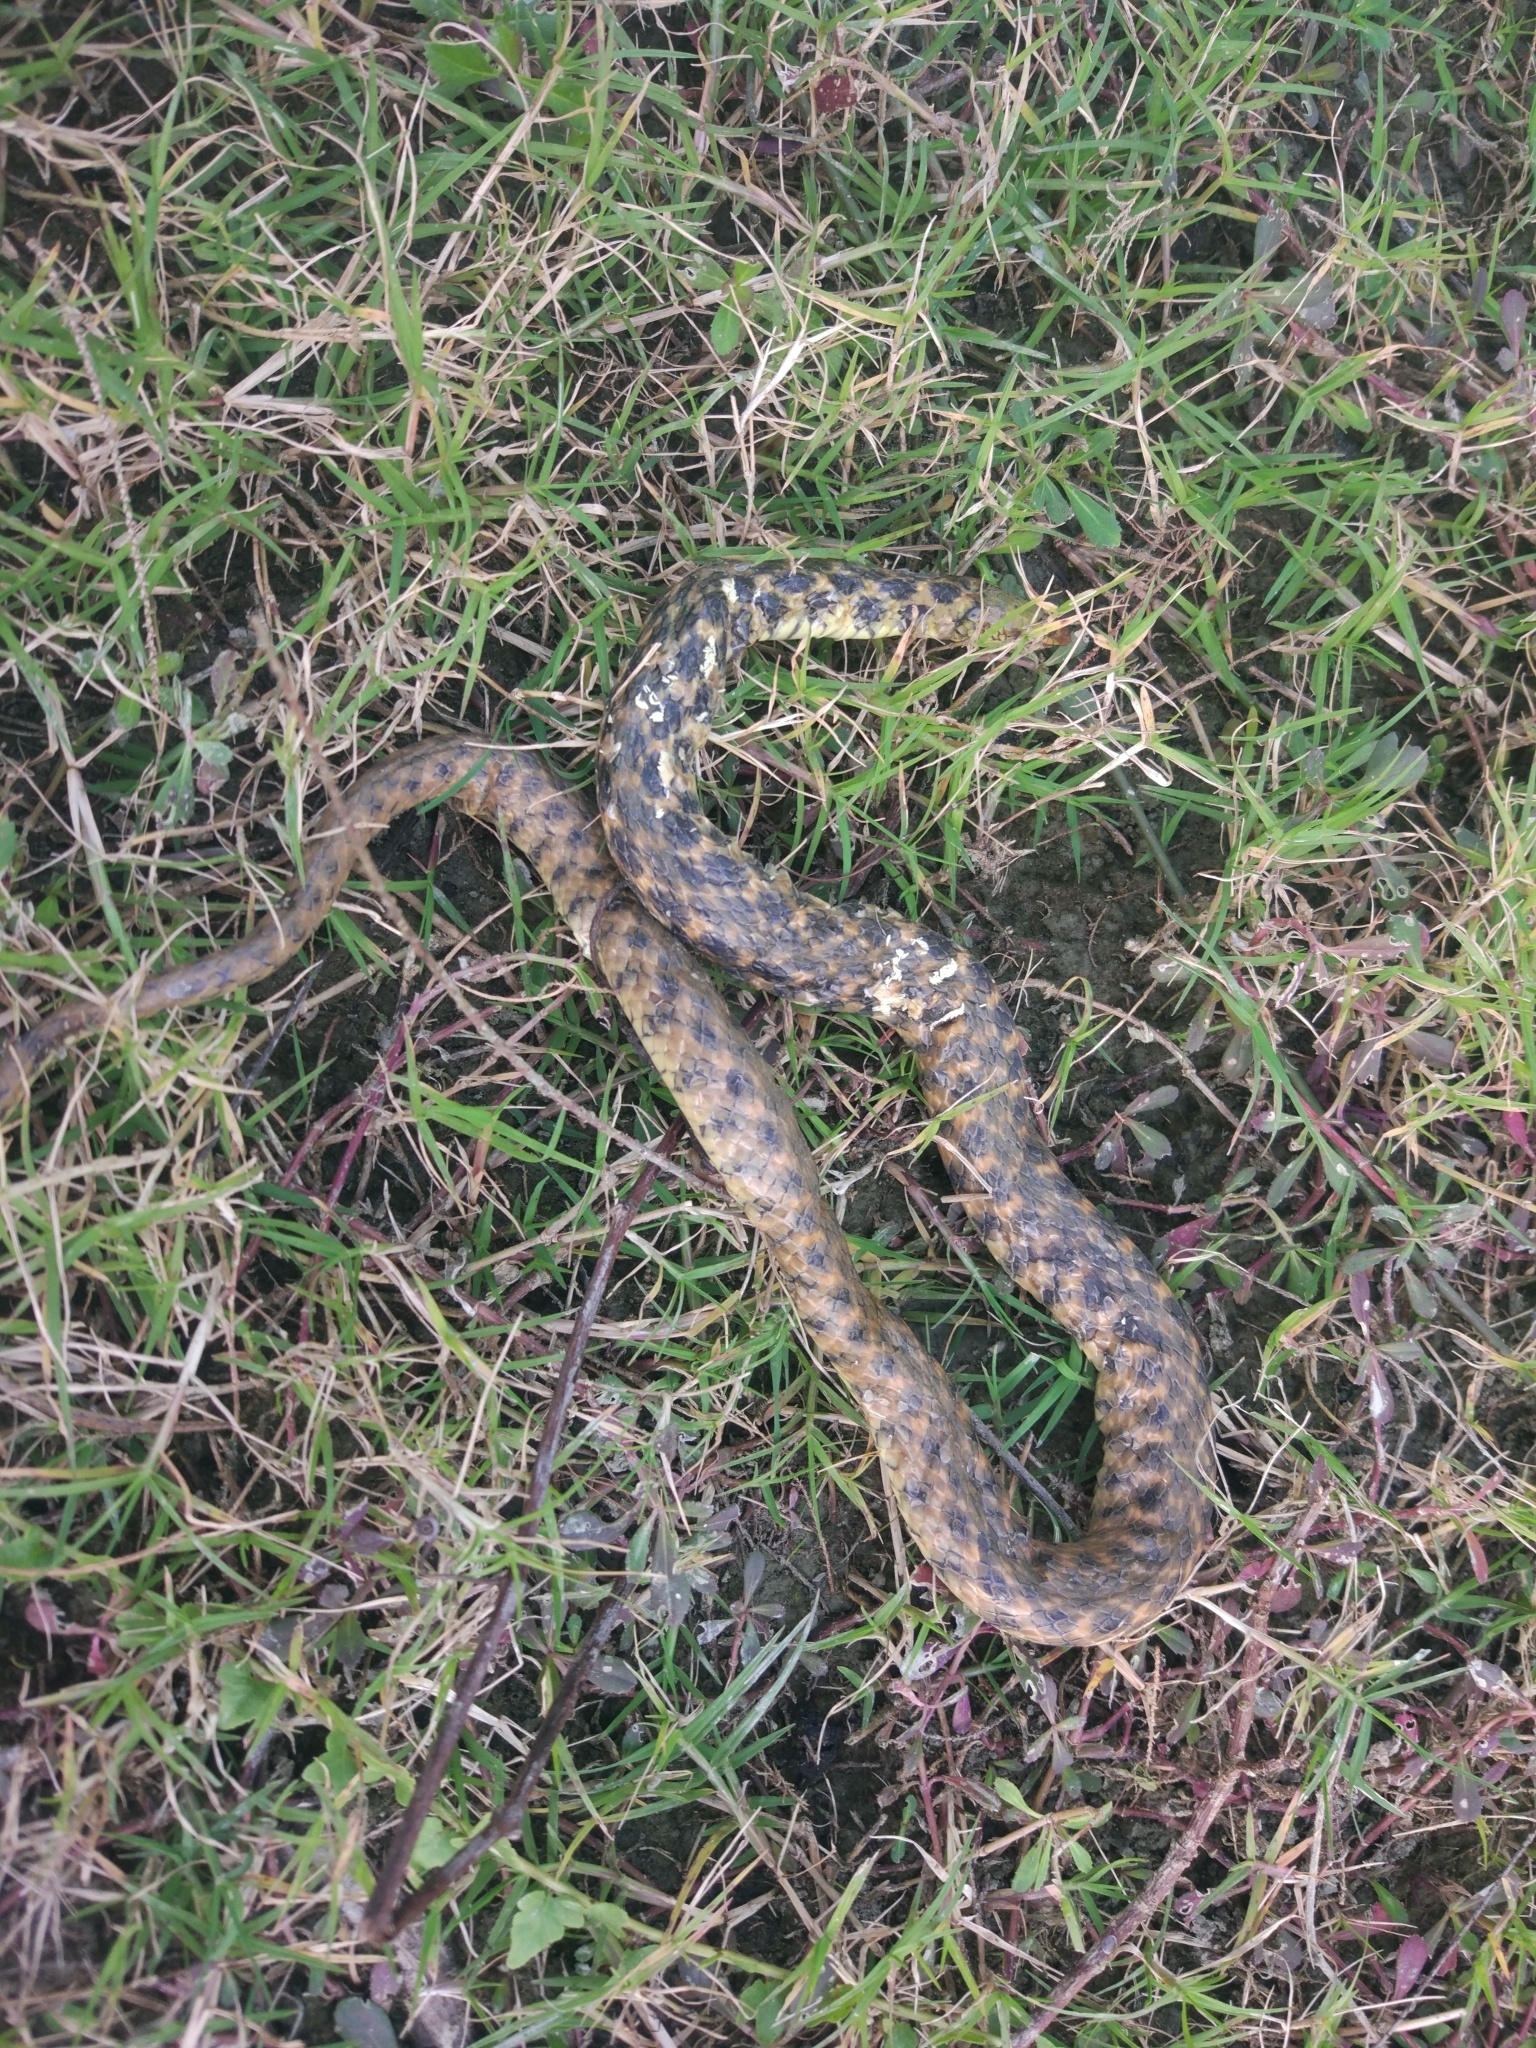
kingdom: Animalia
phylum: Chordata
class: Squamata
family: Colubridae
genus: Fowlea
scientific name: Fowlea piscator
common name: Asiatic water snake
